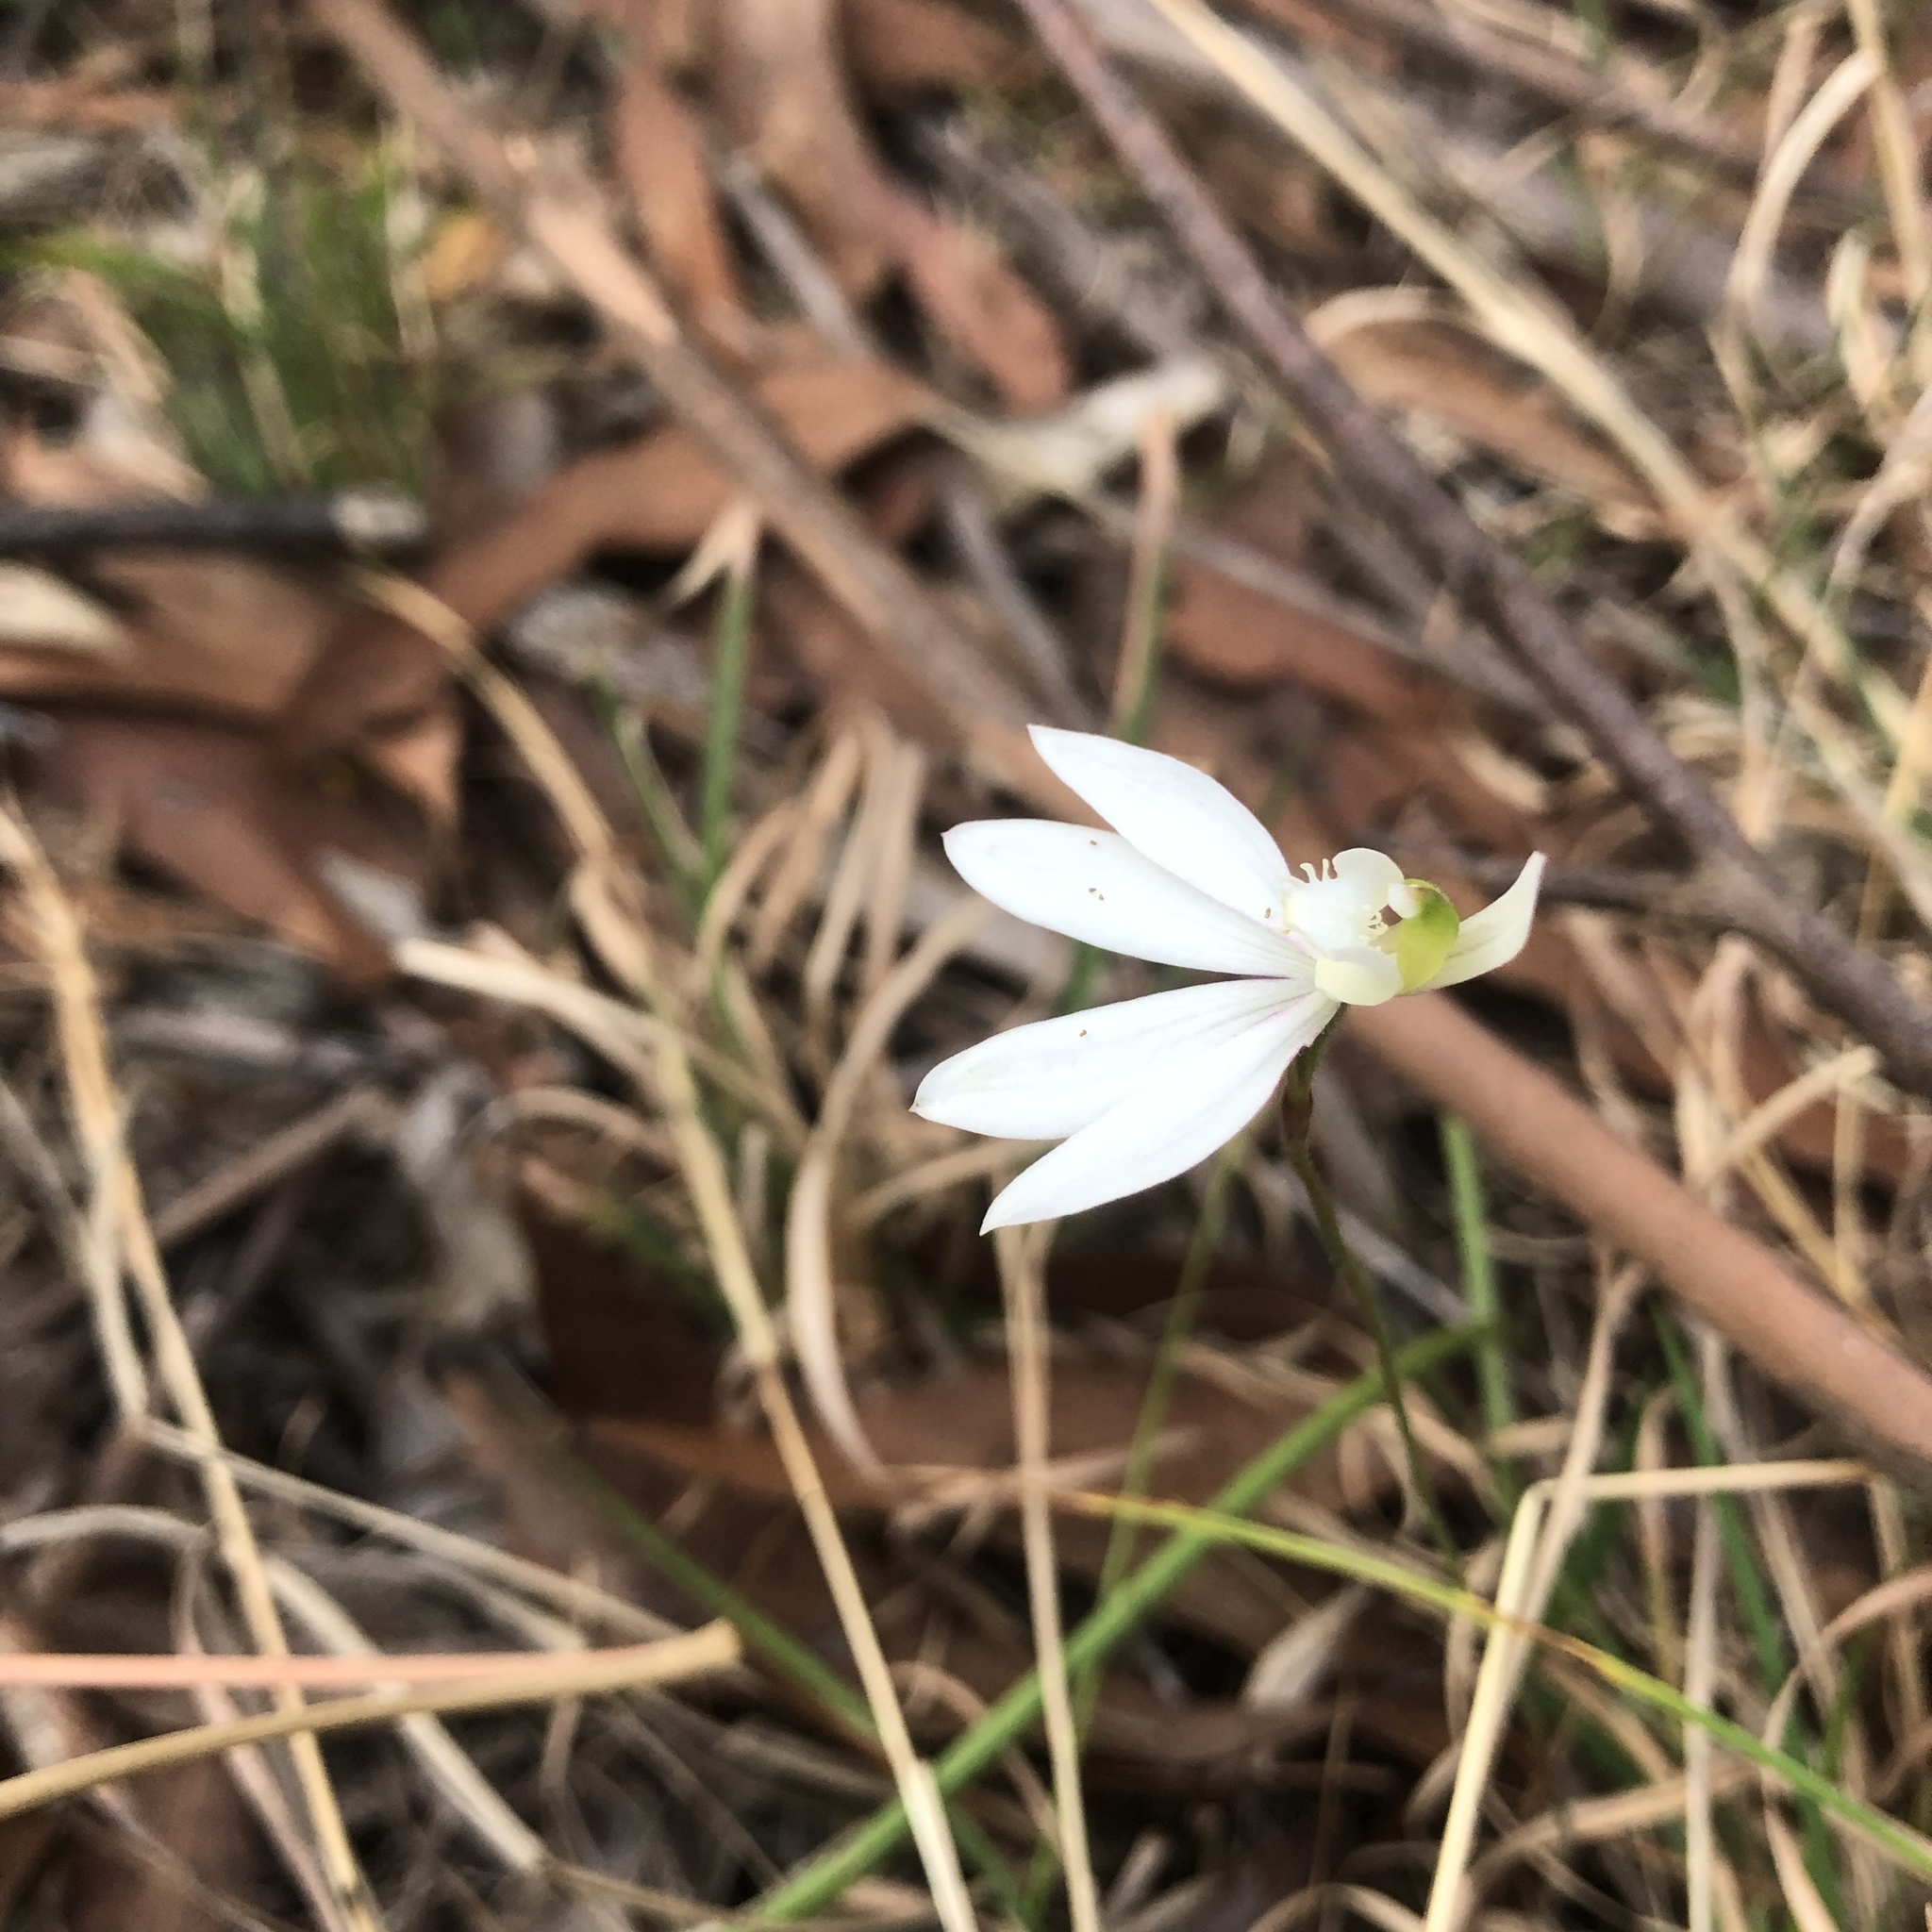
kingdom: Plantae
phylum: Tracheophyta
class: Liliopsida
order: Asparagales
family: Orchidaceae
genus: Caladenia
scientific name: Caladenia catenata
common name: White caladenia
